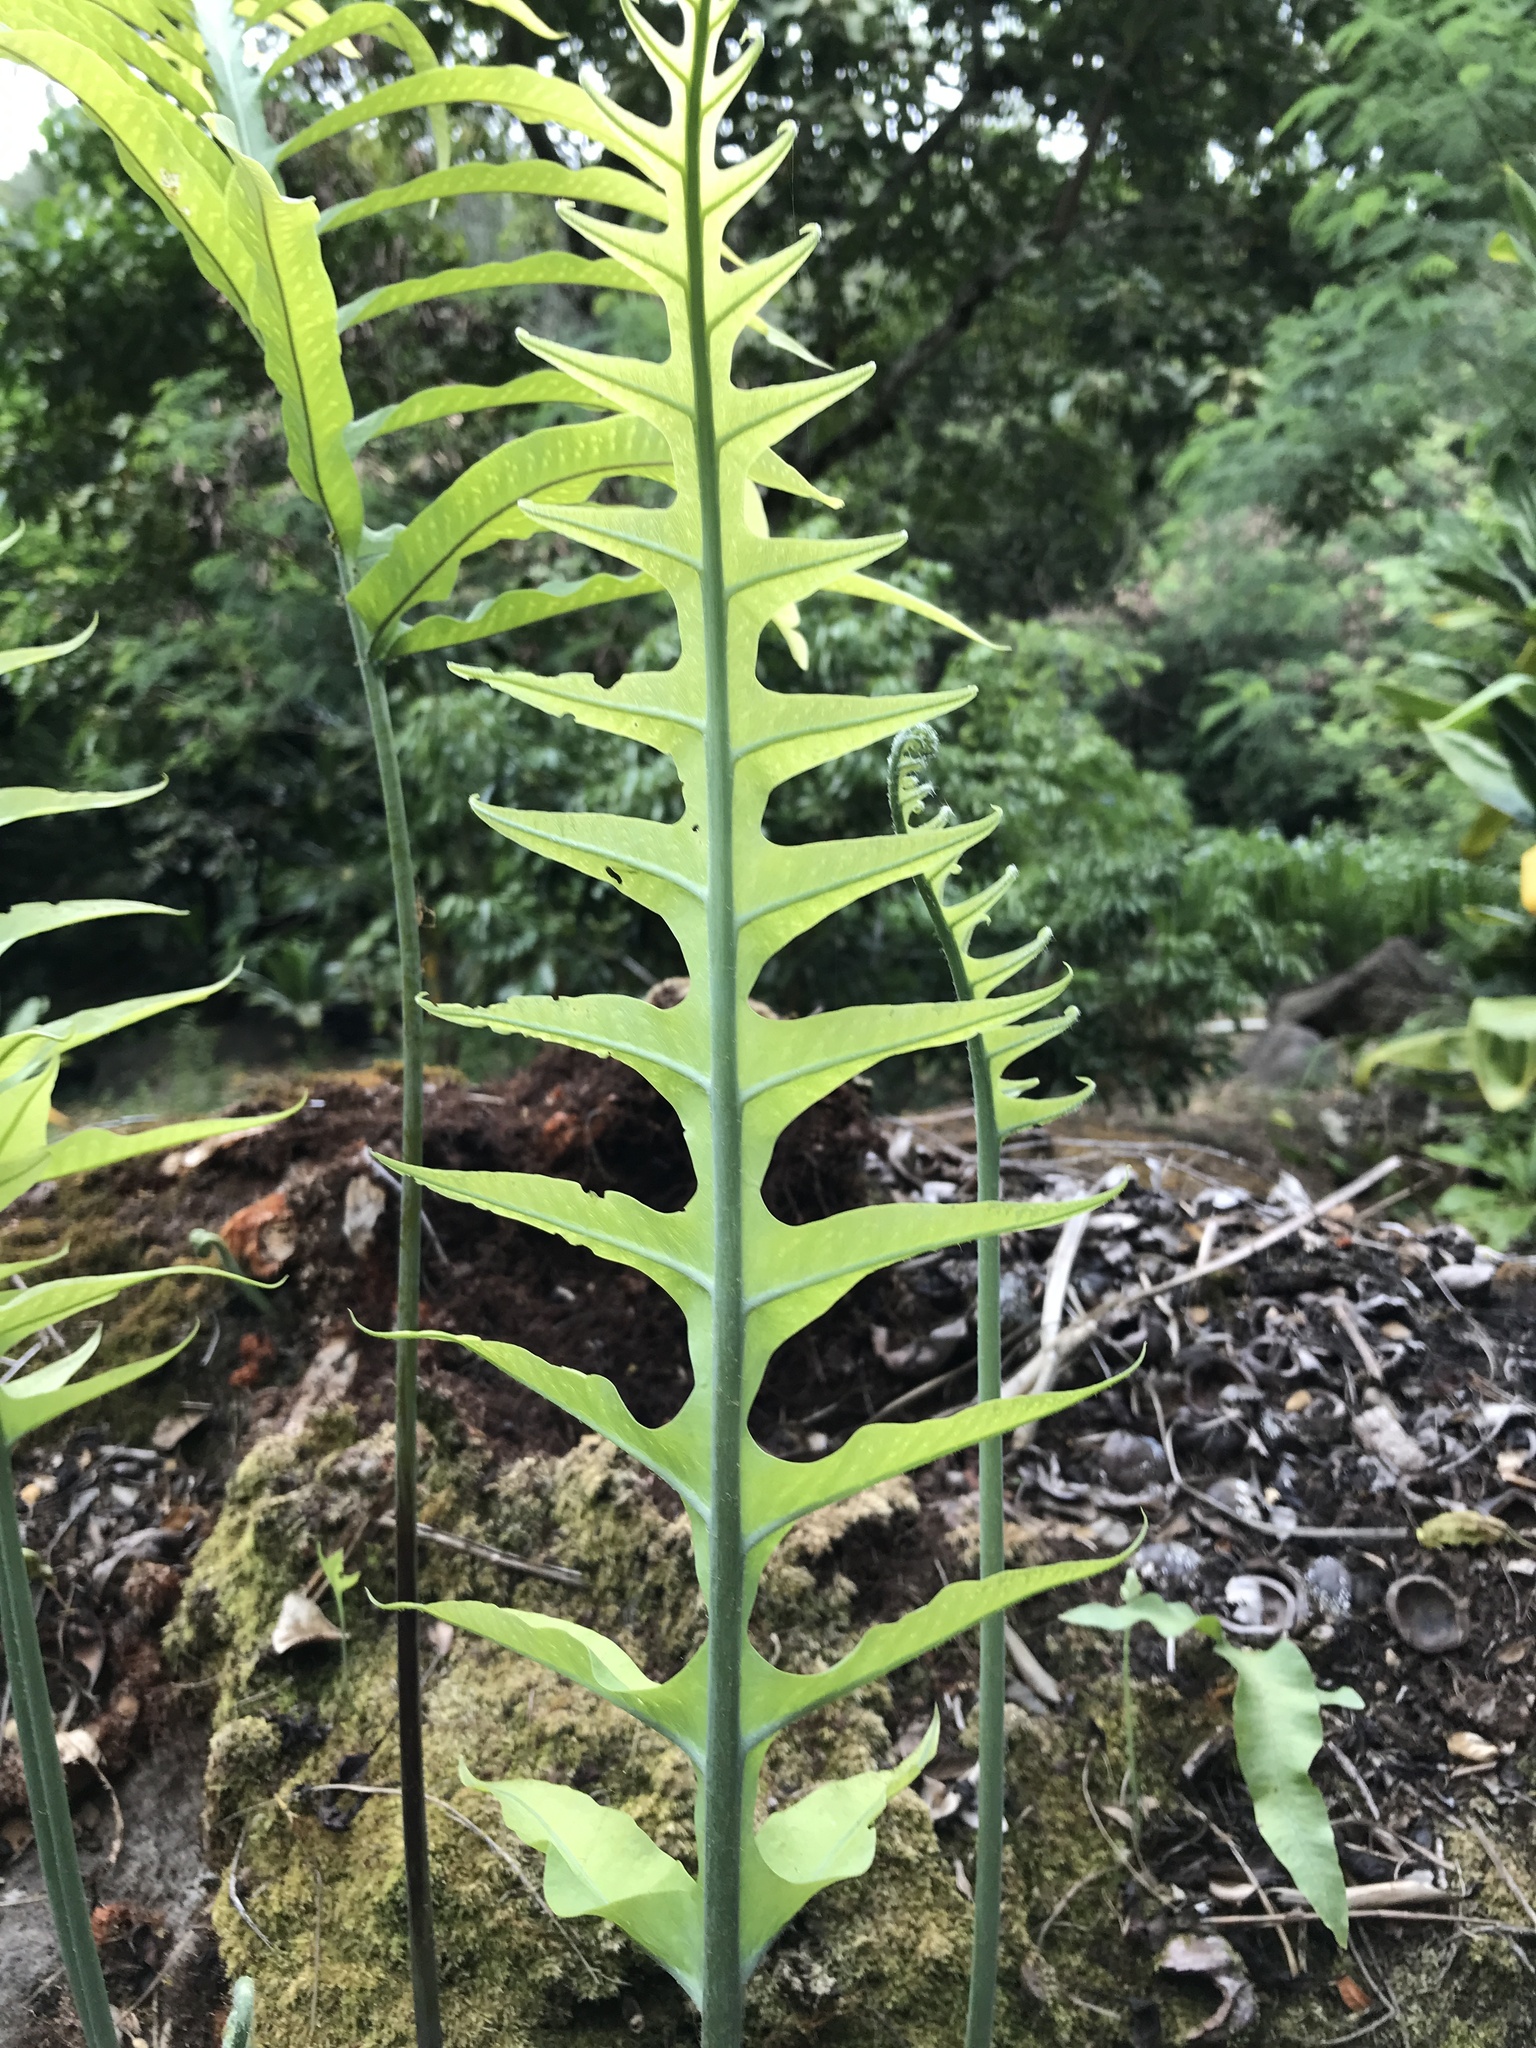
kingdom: Plantae
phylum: Tracheophyta
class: Polypodiopsida
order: Polypodiales
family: Polypodiaceae
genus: Phlebodium
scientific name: Phlebodium aureum
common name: Gold-foot fern
